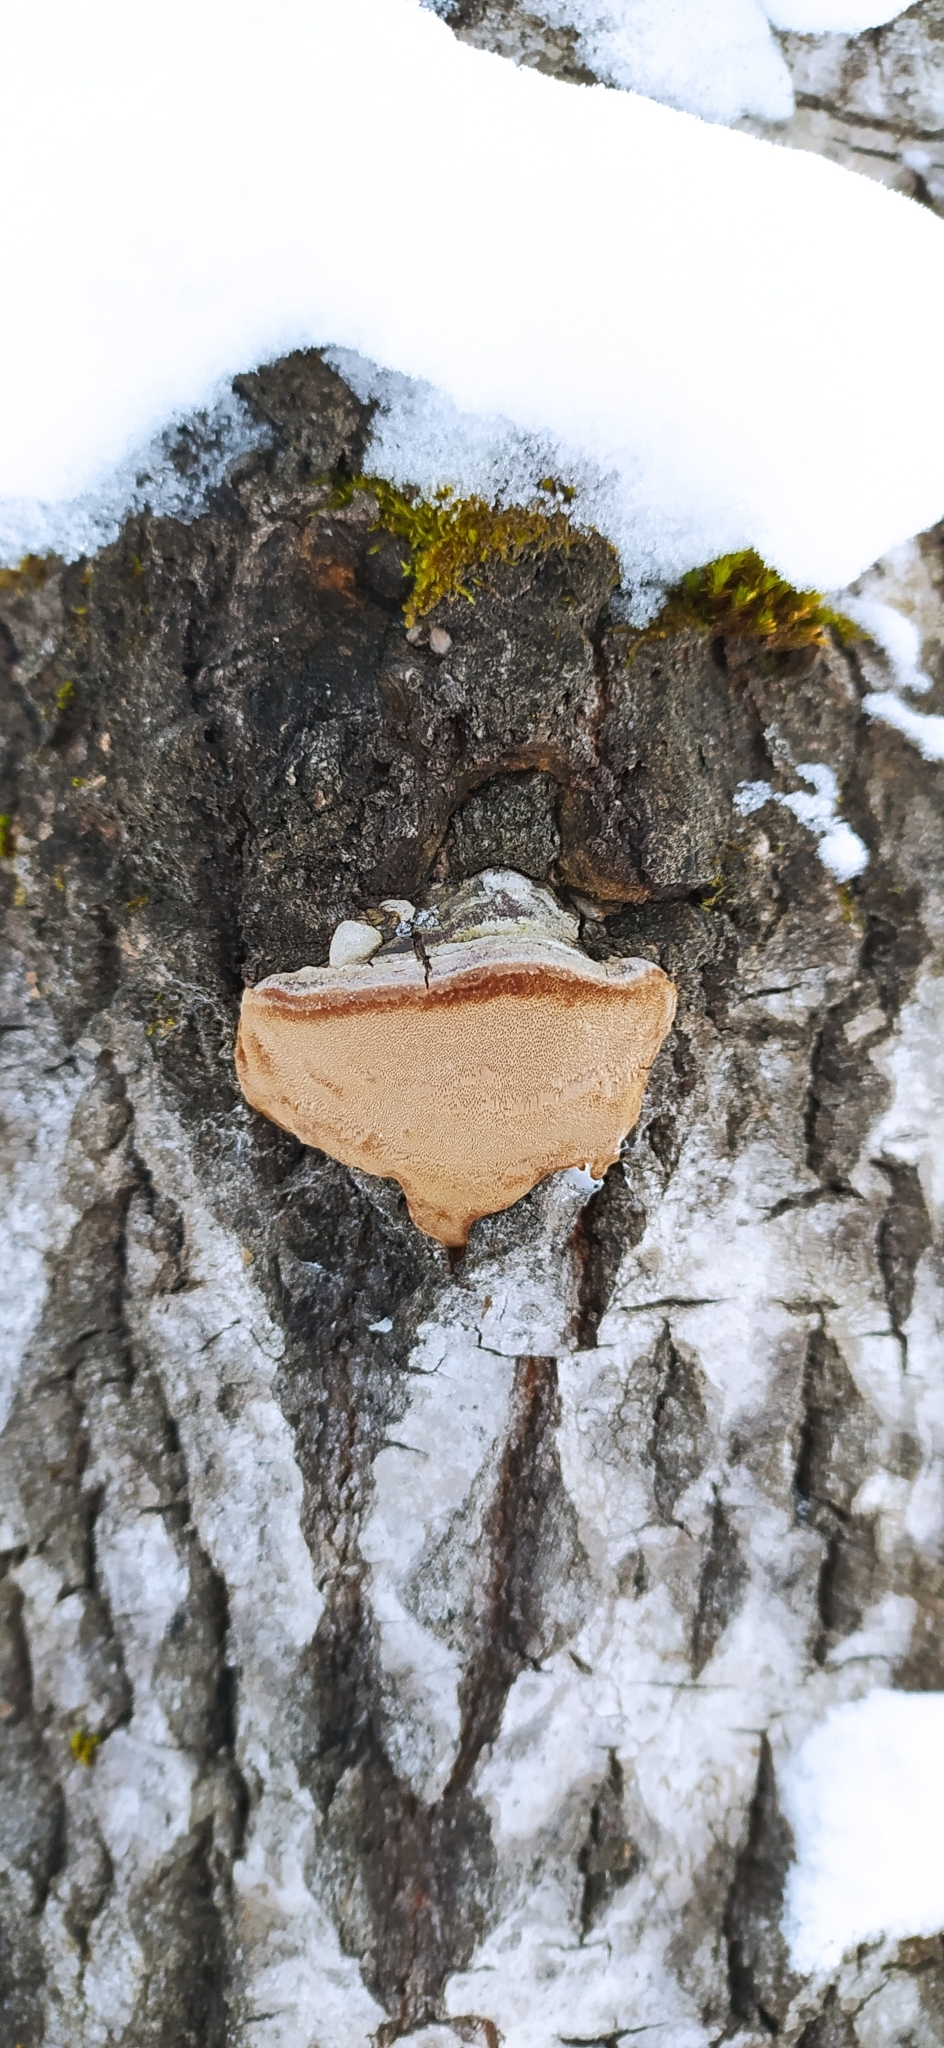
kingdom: Fungi
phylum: Basidiomycota
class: Agaricomycetes
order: Hymenochaetales
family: Hymenochaetaceae
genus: Phellinus
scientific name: Phellinus tremulae
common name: Aspen bracket
